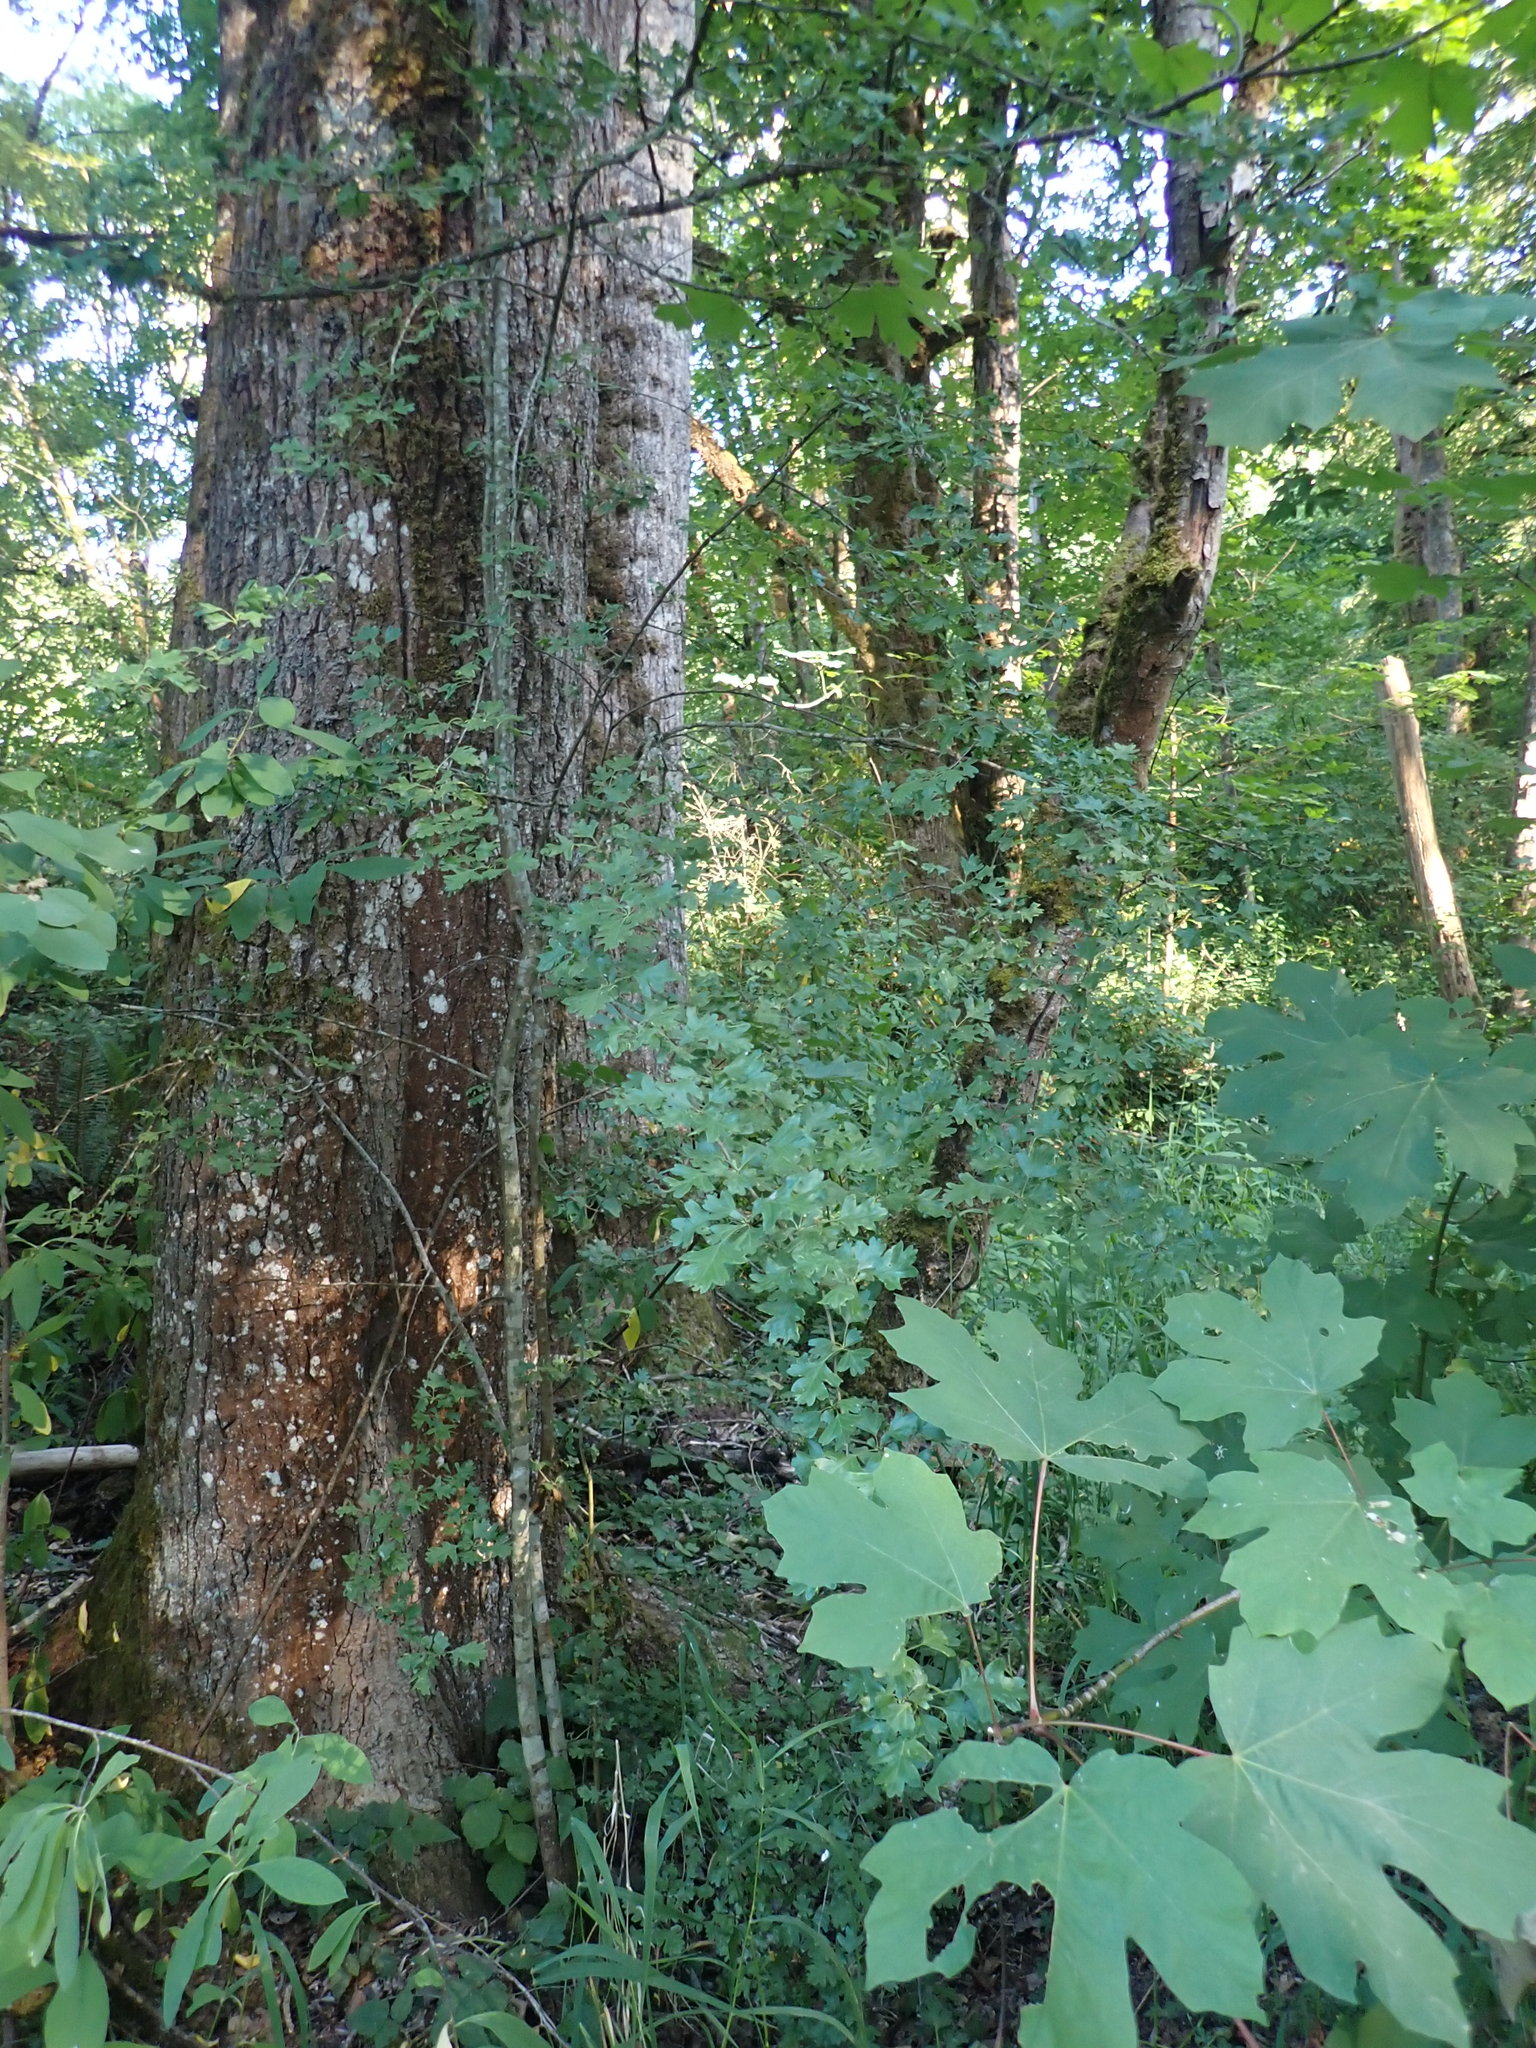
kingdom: Plantae
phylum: Tracheophyta
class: Magnoliopsida
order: Rosales
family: Rosaceae
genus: Crataegus
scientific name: Crataegus monogyna
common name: Hawthorn
